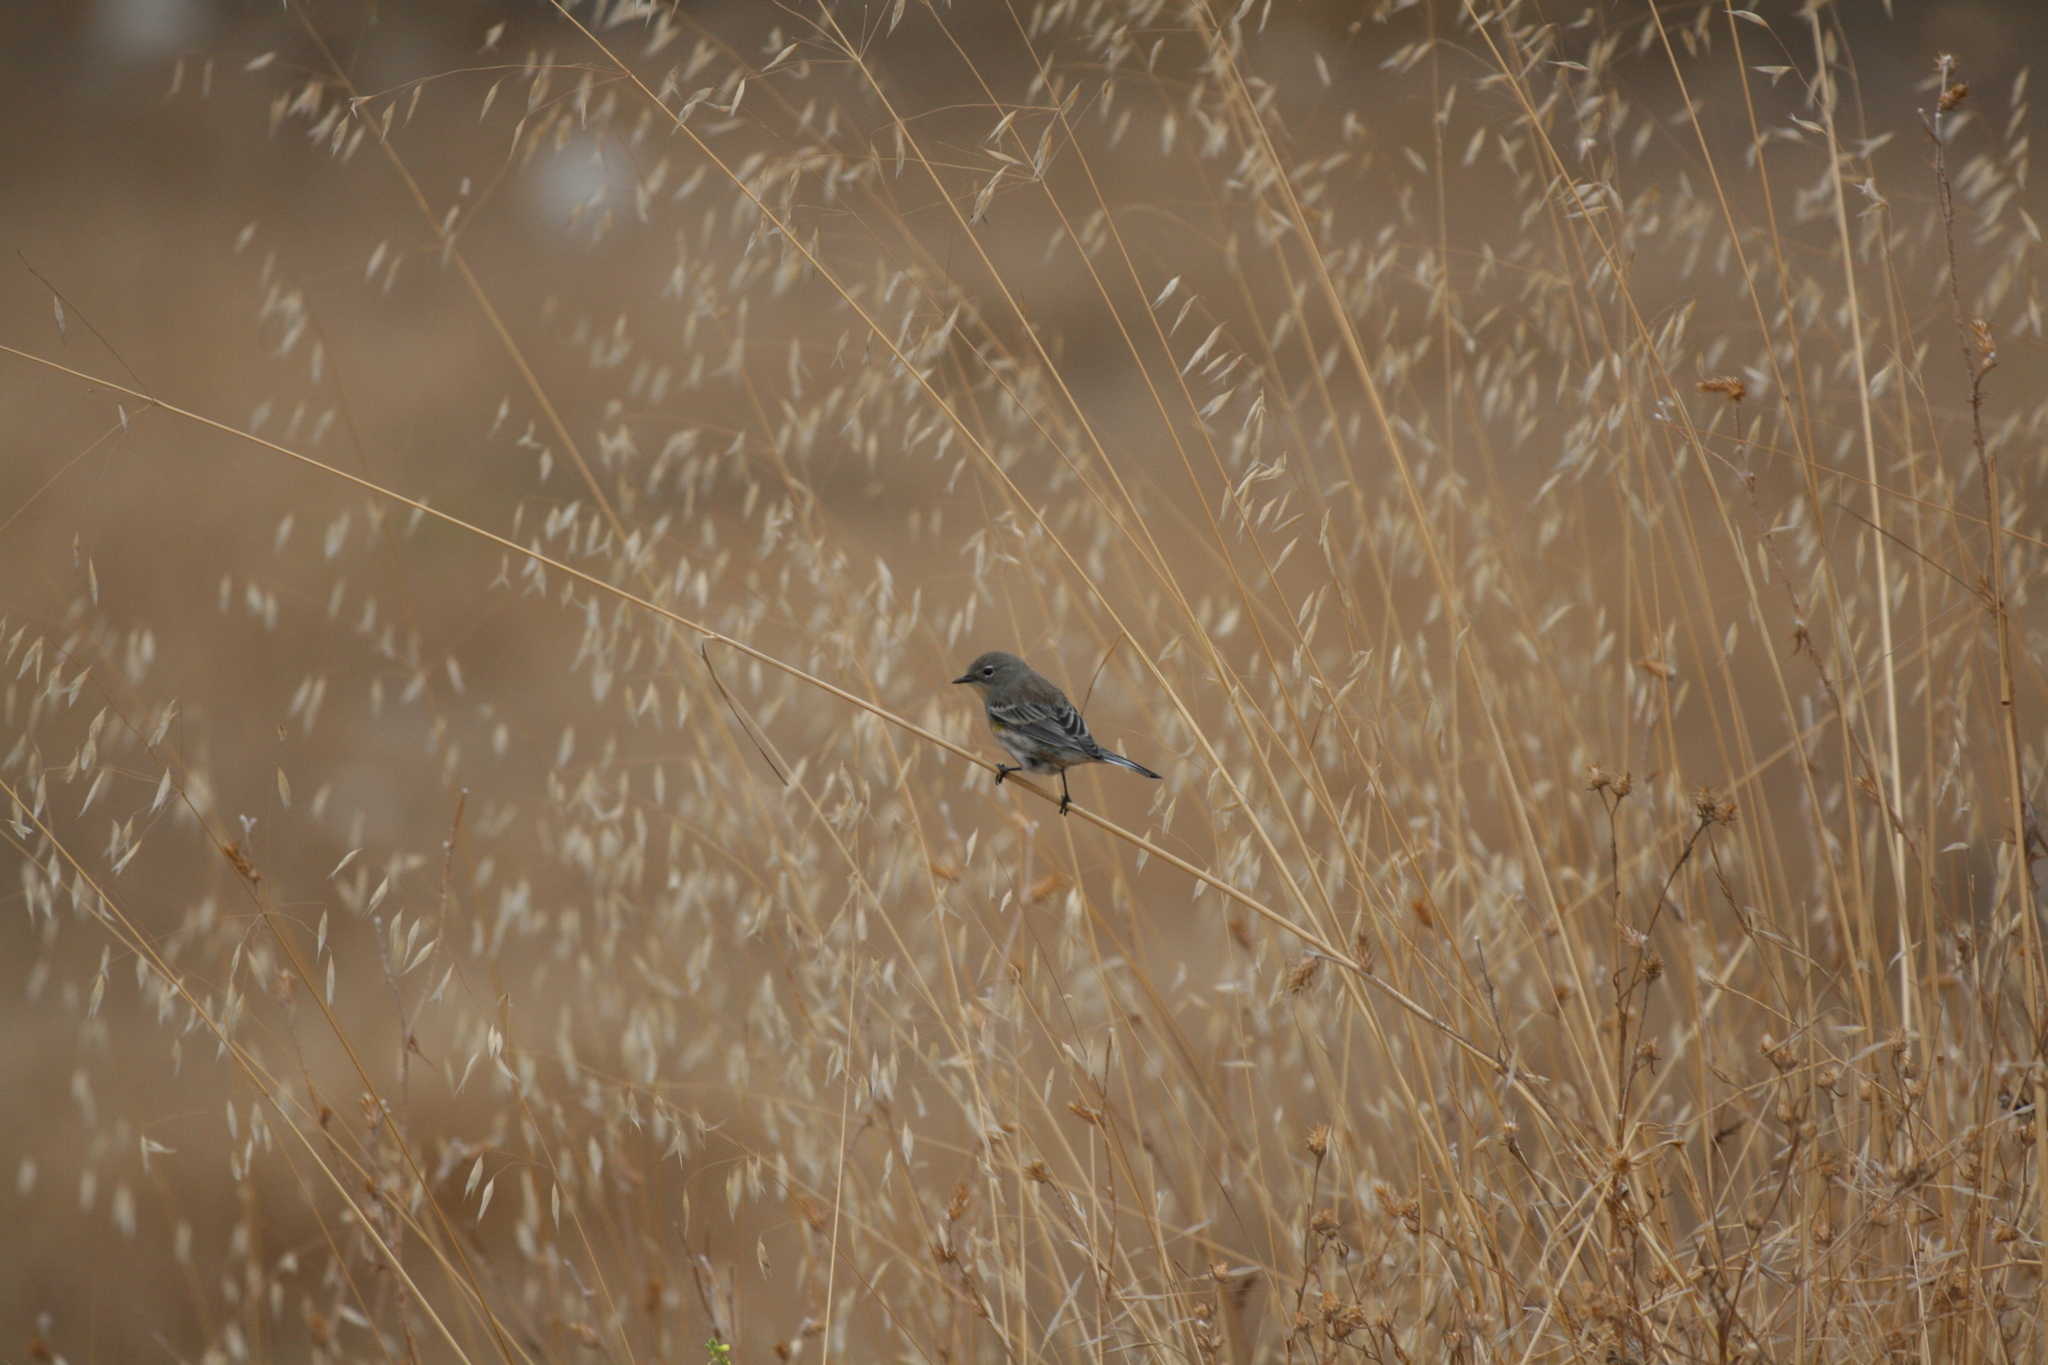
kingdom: Animalia
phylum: Chordata
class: Aves
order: Passeriformes
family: Parulidae
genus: Setophaga
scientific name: Setophaga coronata
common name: Myrtle warbler
